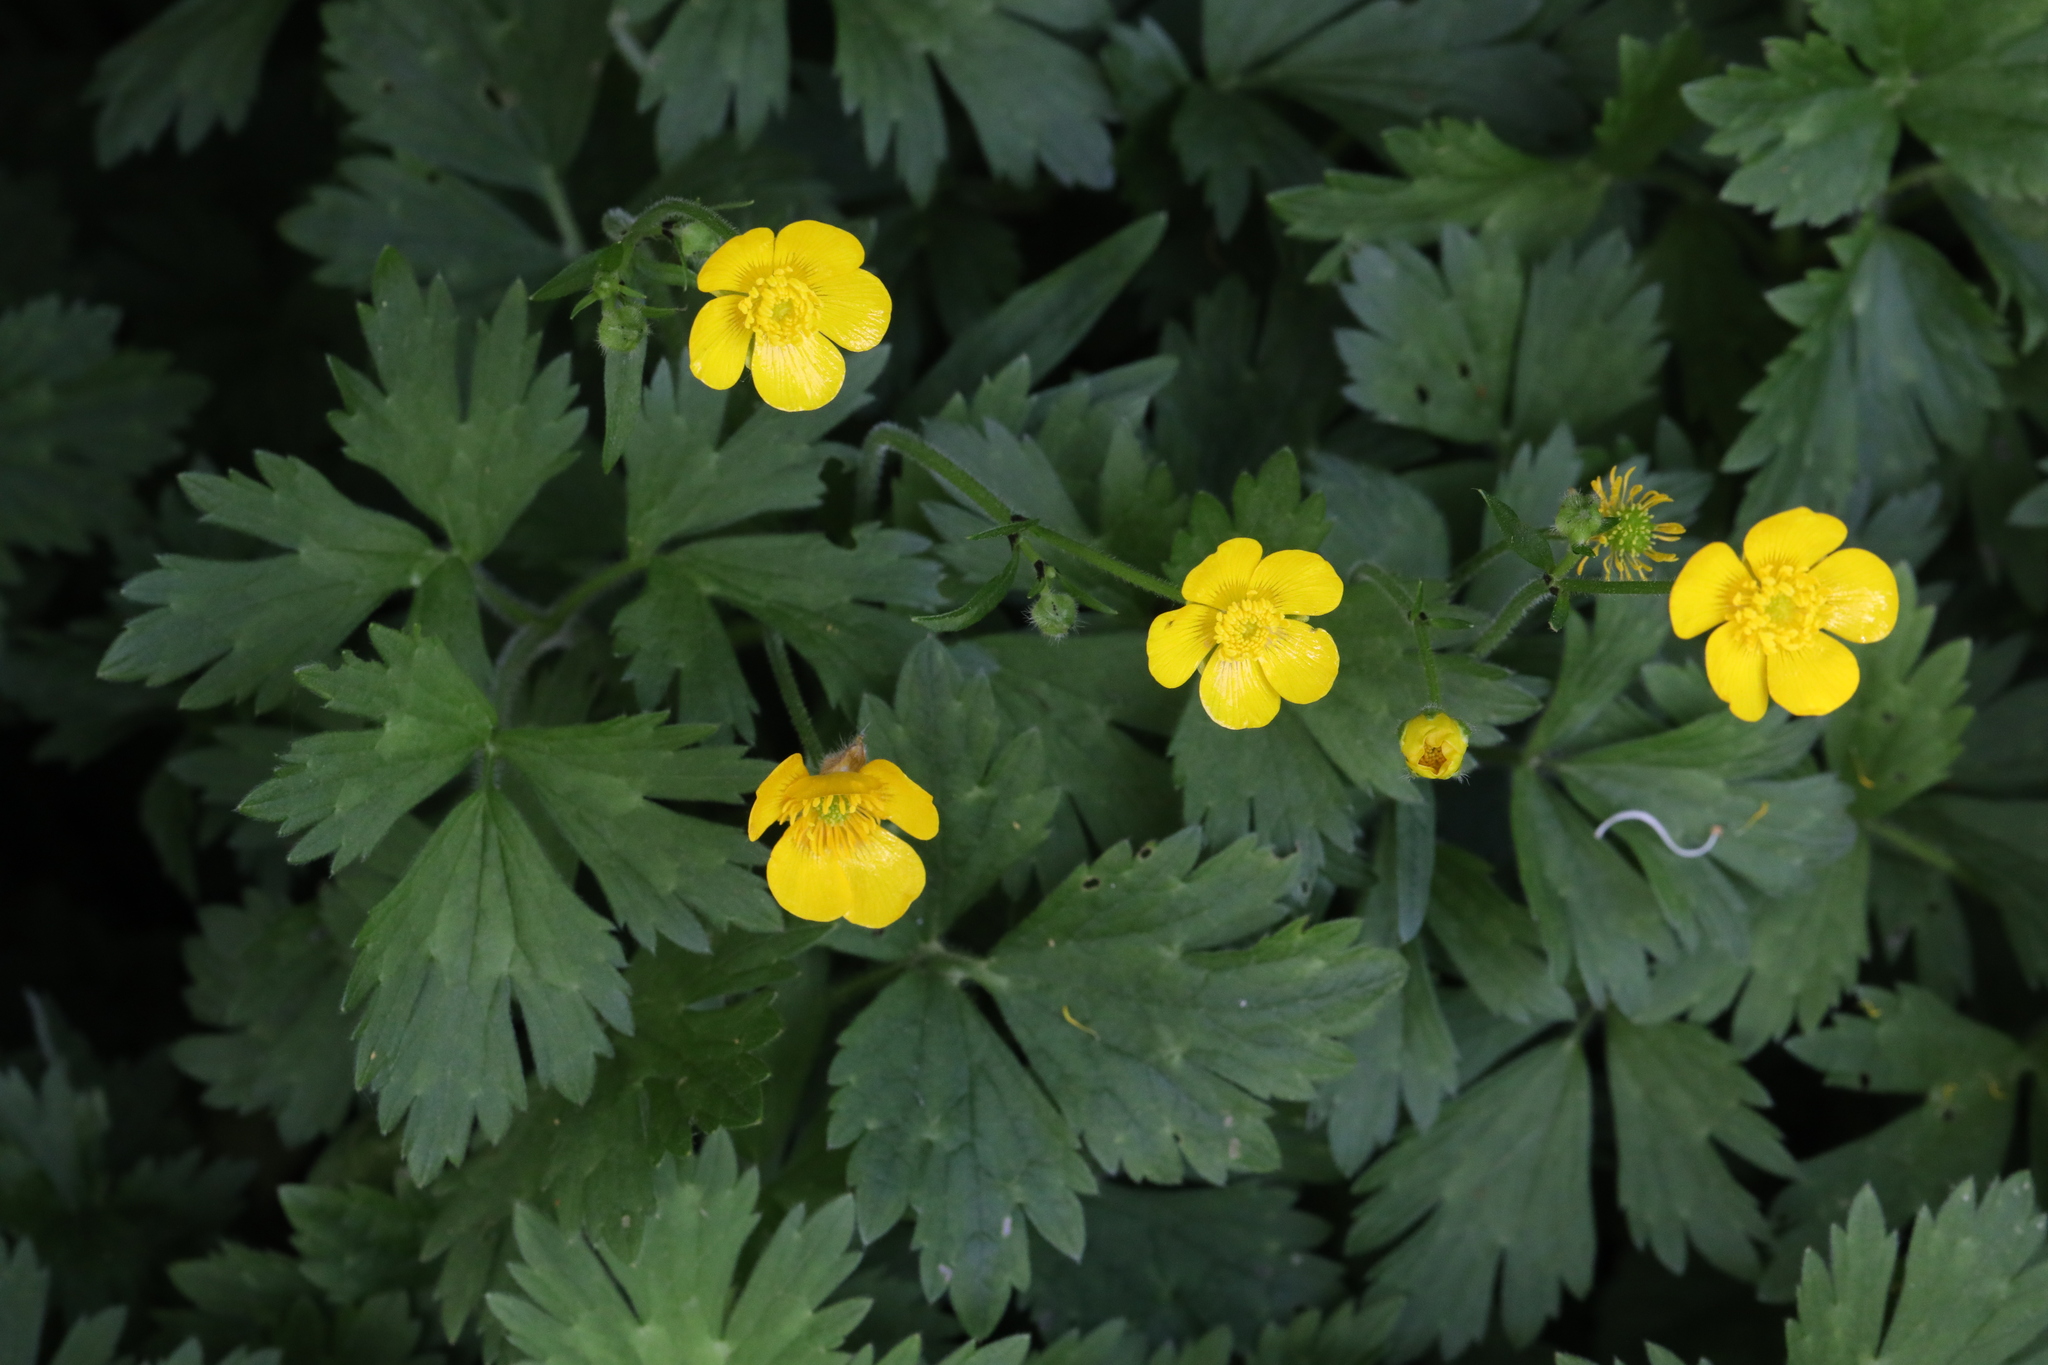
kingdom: Plantae
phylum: Tracheophyta
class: Magnoliopsida
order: Ranunculales
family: Ranunculaceae
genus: Ranunculus
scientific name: Ranunculus repens
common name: Creeping buttercup
